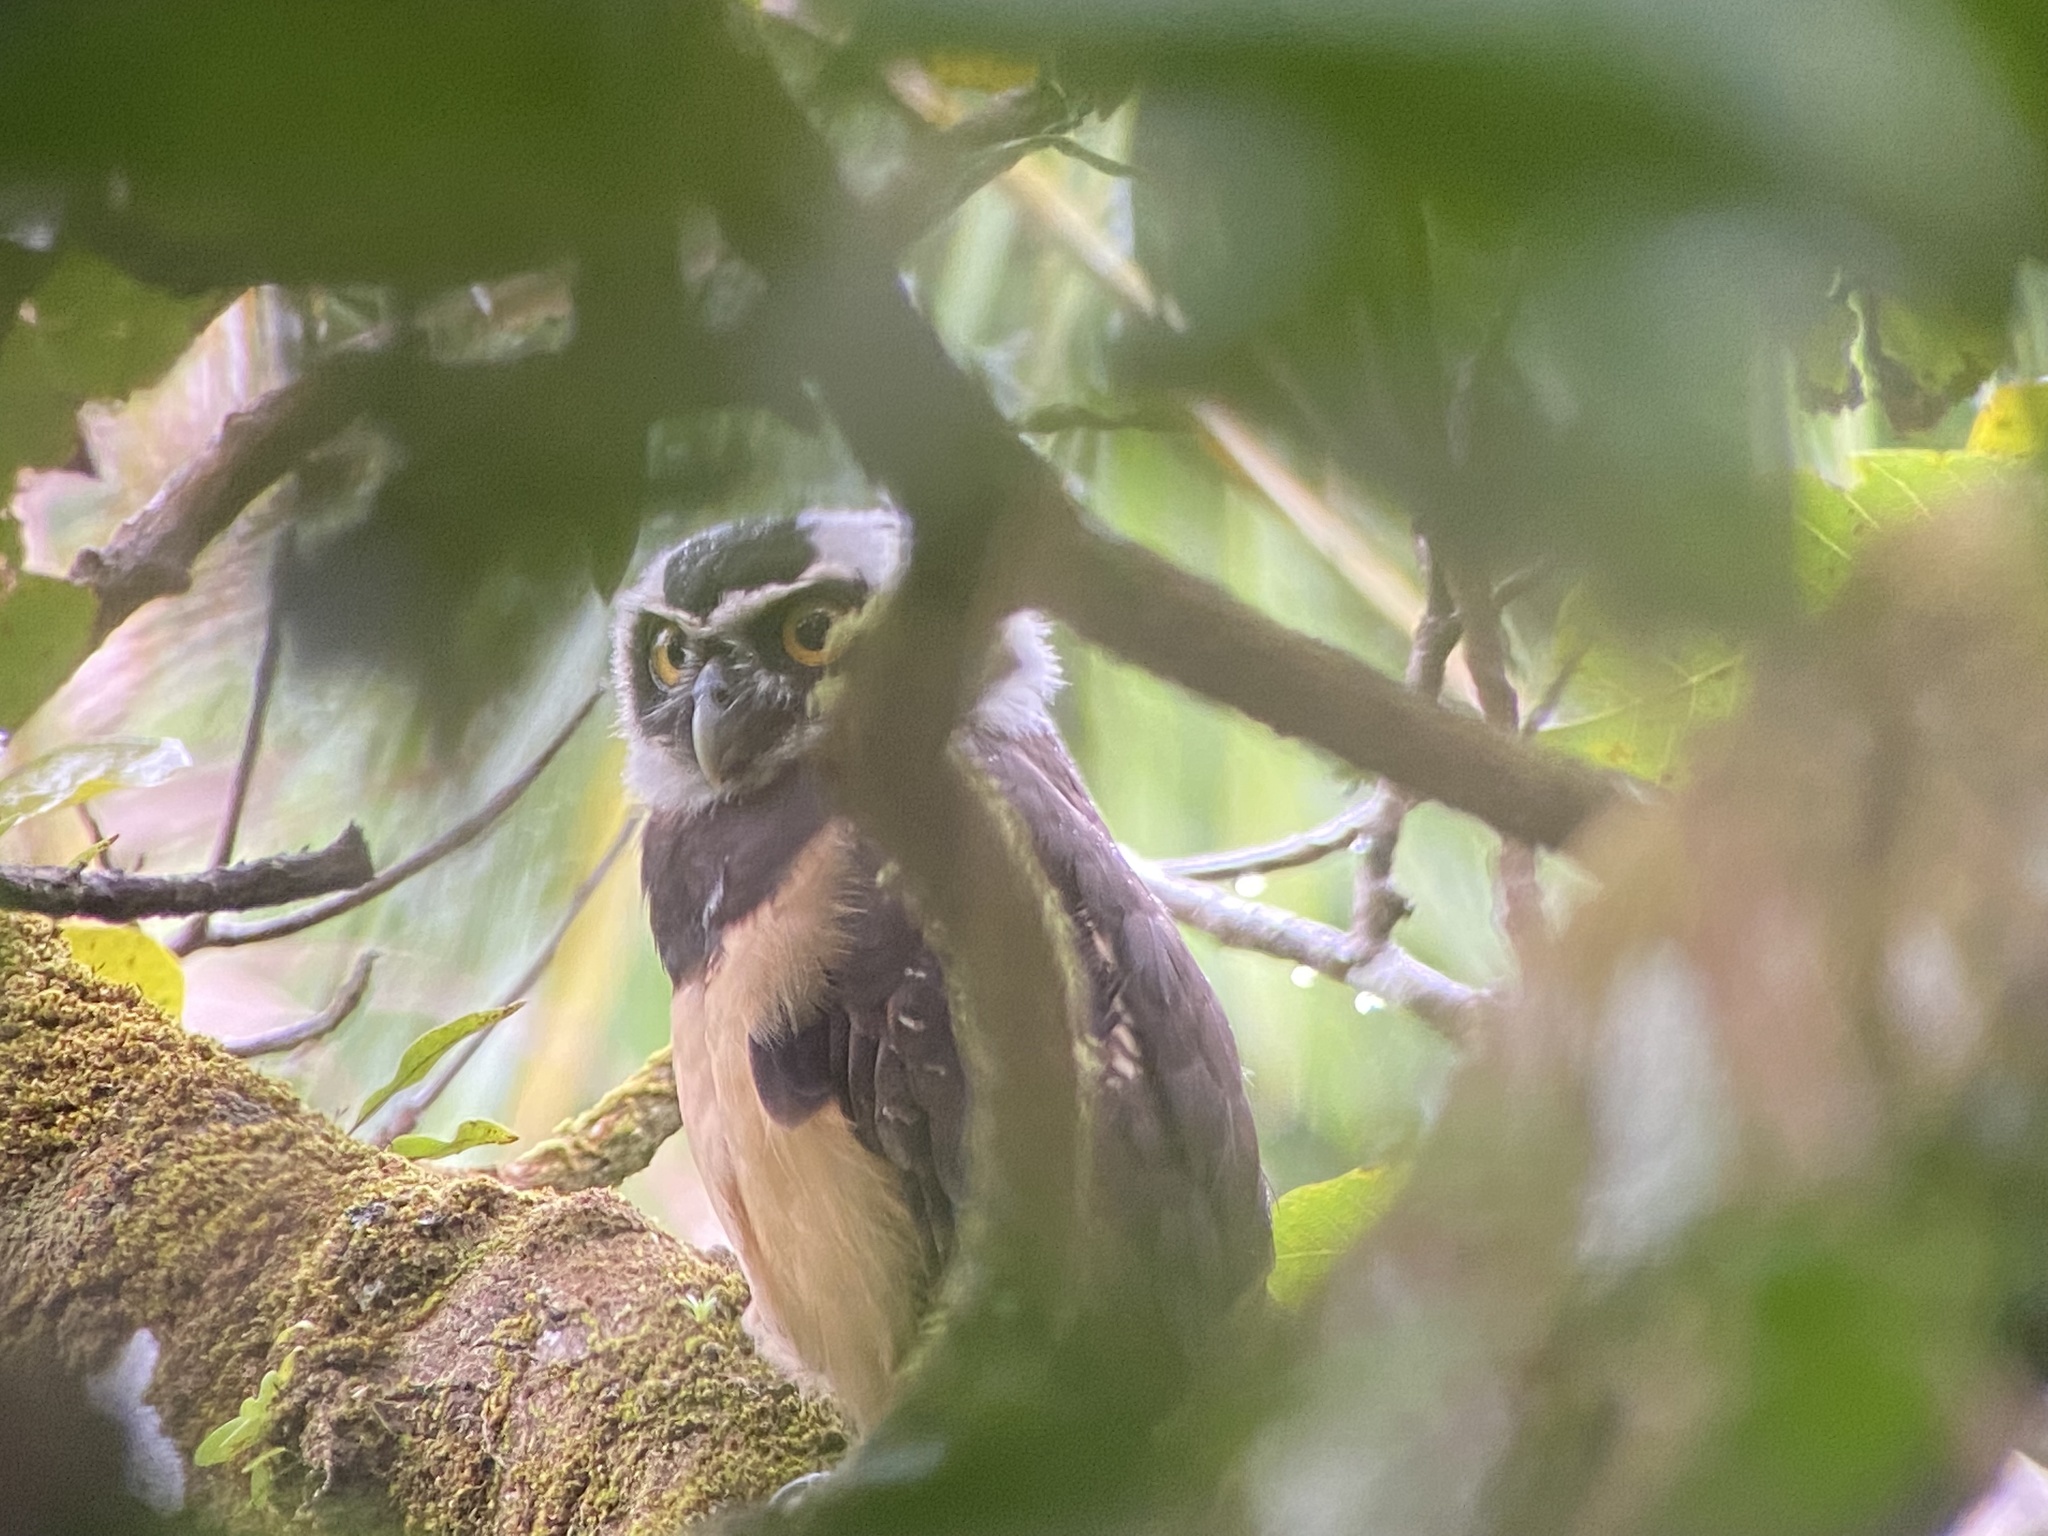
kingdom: Animalia
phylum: Chordata
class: Aves
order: Strigiformes
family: Strigidae
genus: Pulsatrix
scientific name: Pulsatrix perspicillata
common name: Spectacled owl
